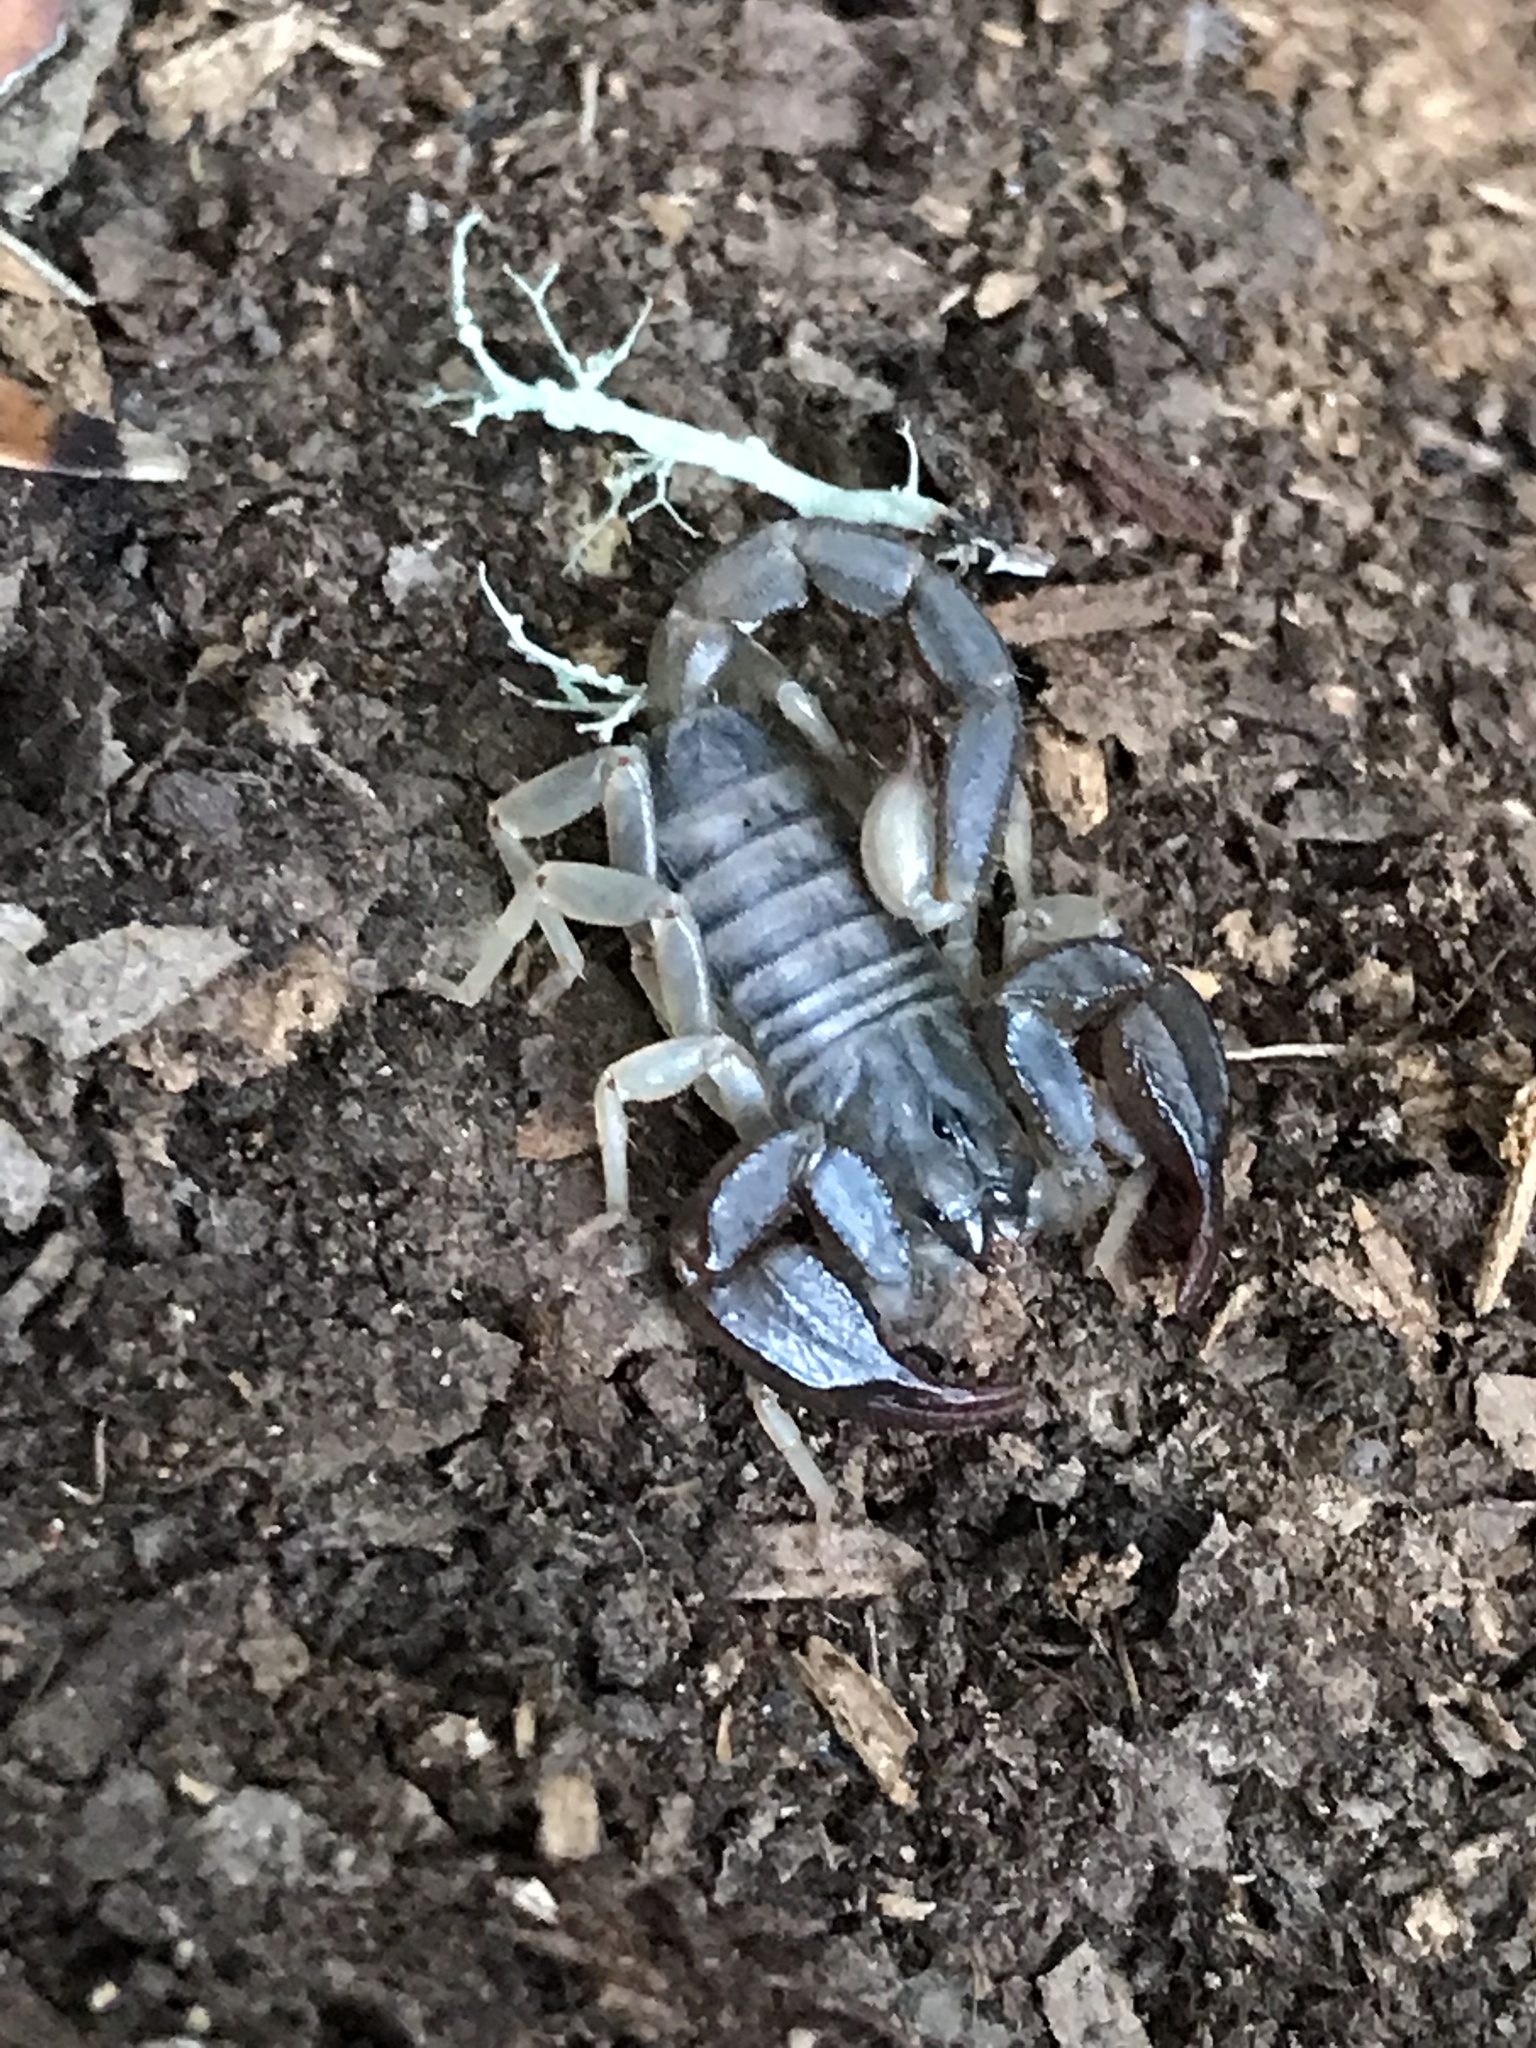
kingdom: Animalia
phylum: Arthropoda
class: Arachnida
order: Scorpiones
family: Chactidae
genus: Uroctonus
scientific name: Uroctonus mordax
